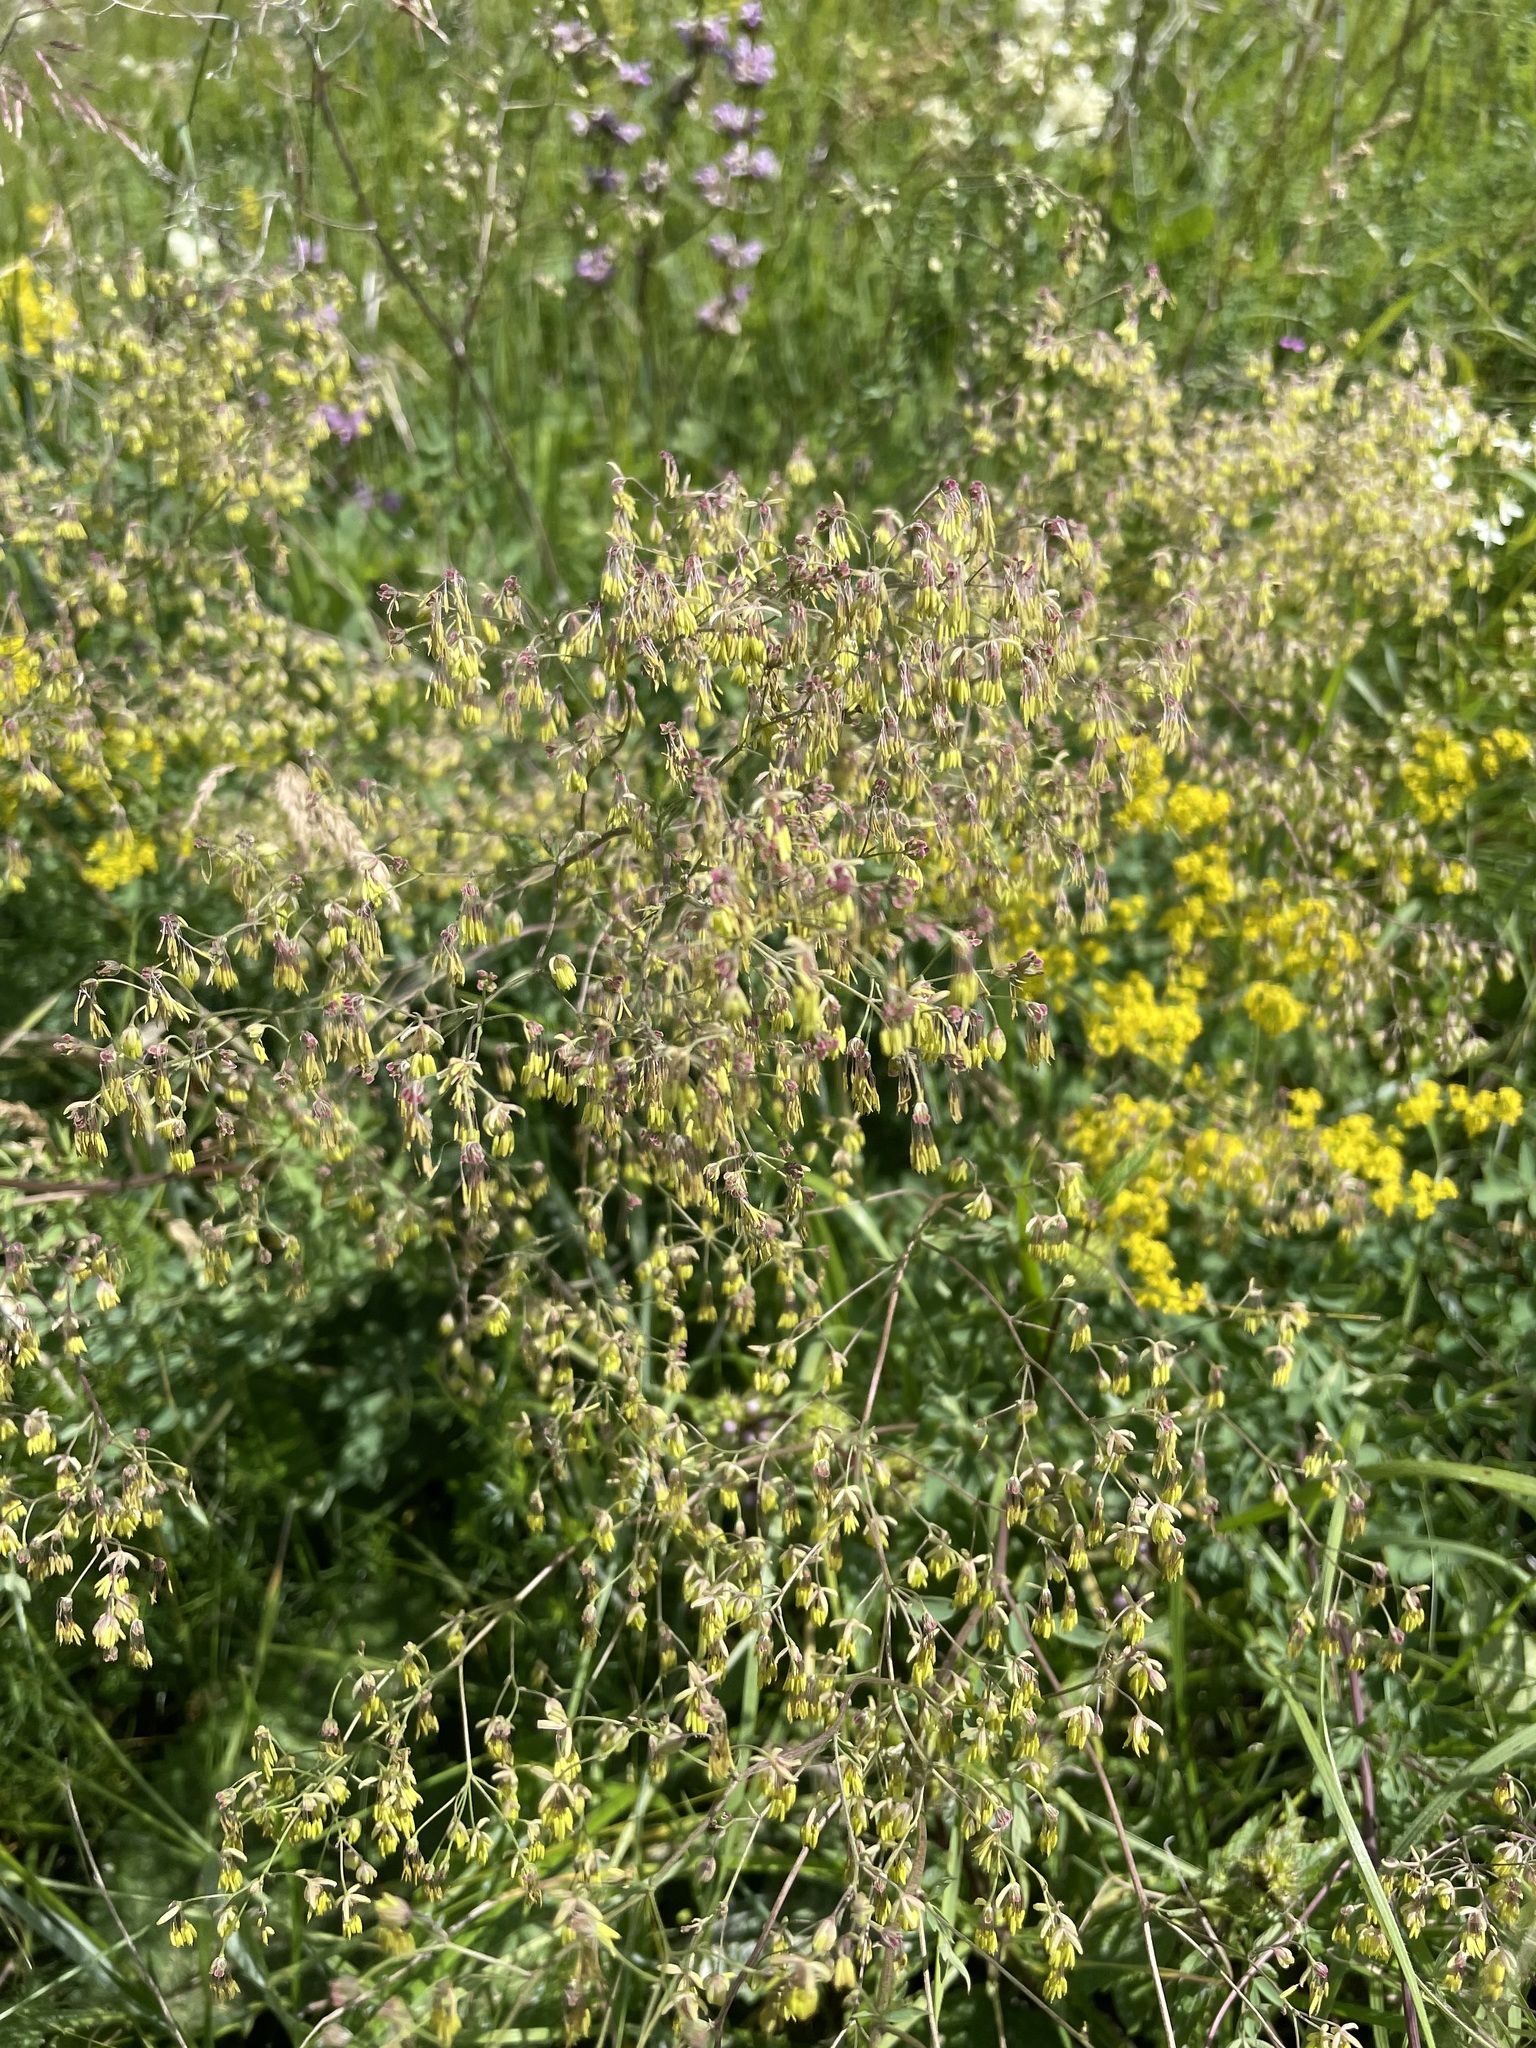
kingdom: Plantae
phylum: Tracheophyta
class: Magnoliopsida
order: Ranunculales
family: Ranunculaceae
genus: Thalictrum
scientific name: Thalictrum minus
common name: Lesser meadow-rue
